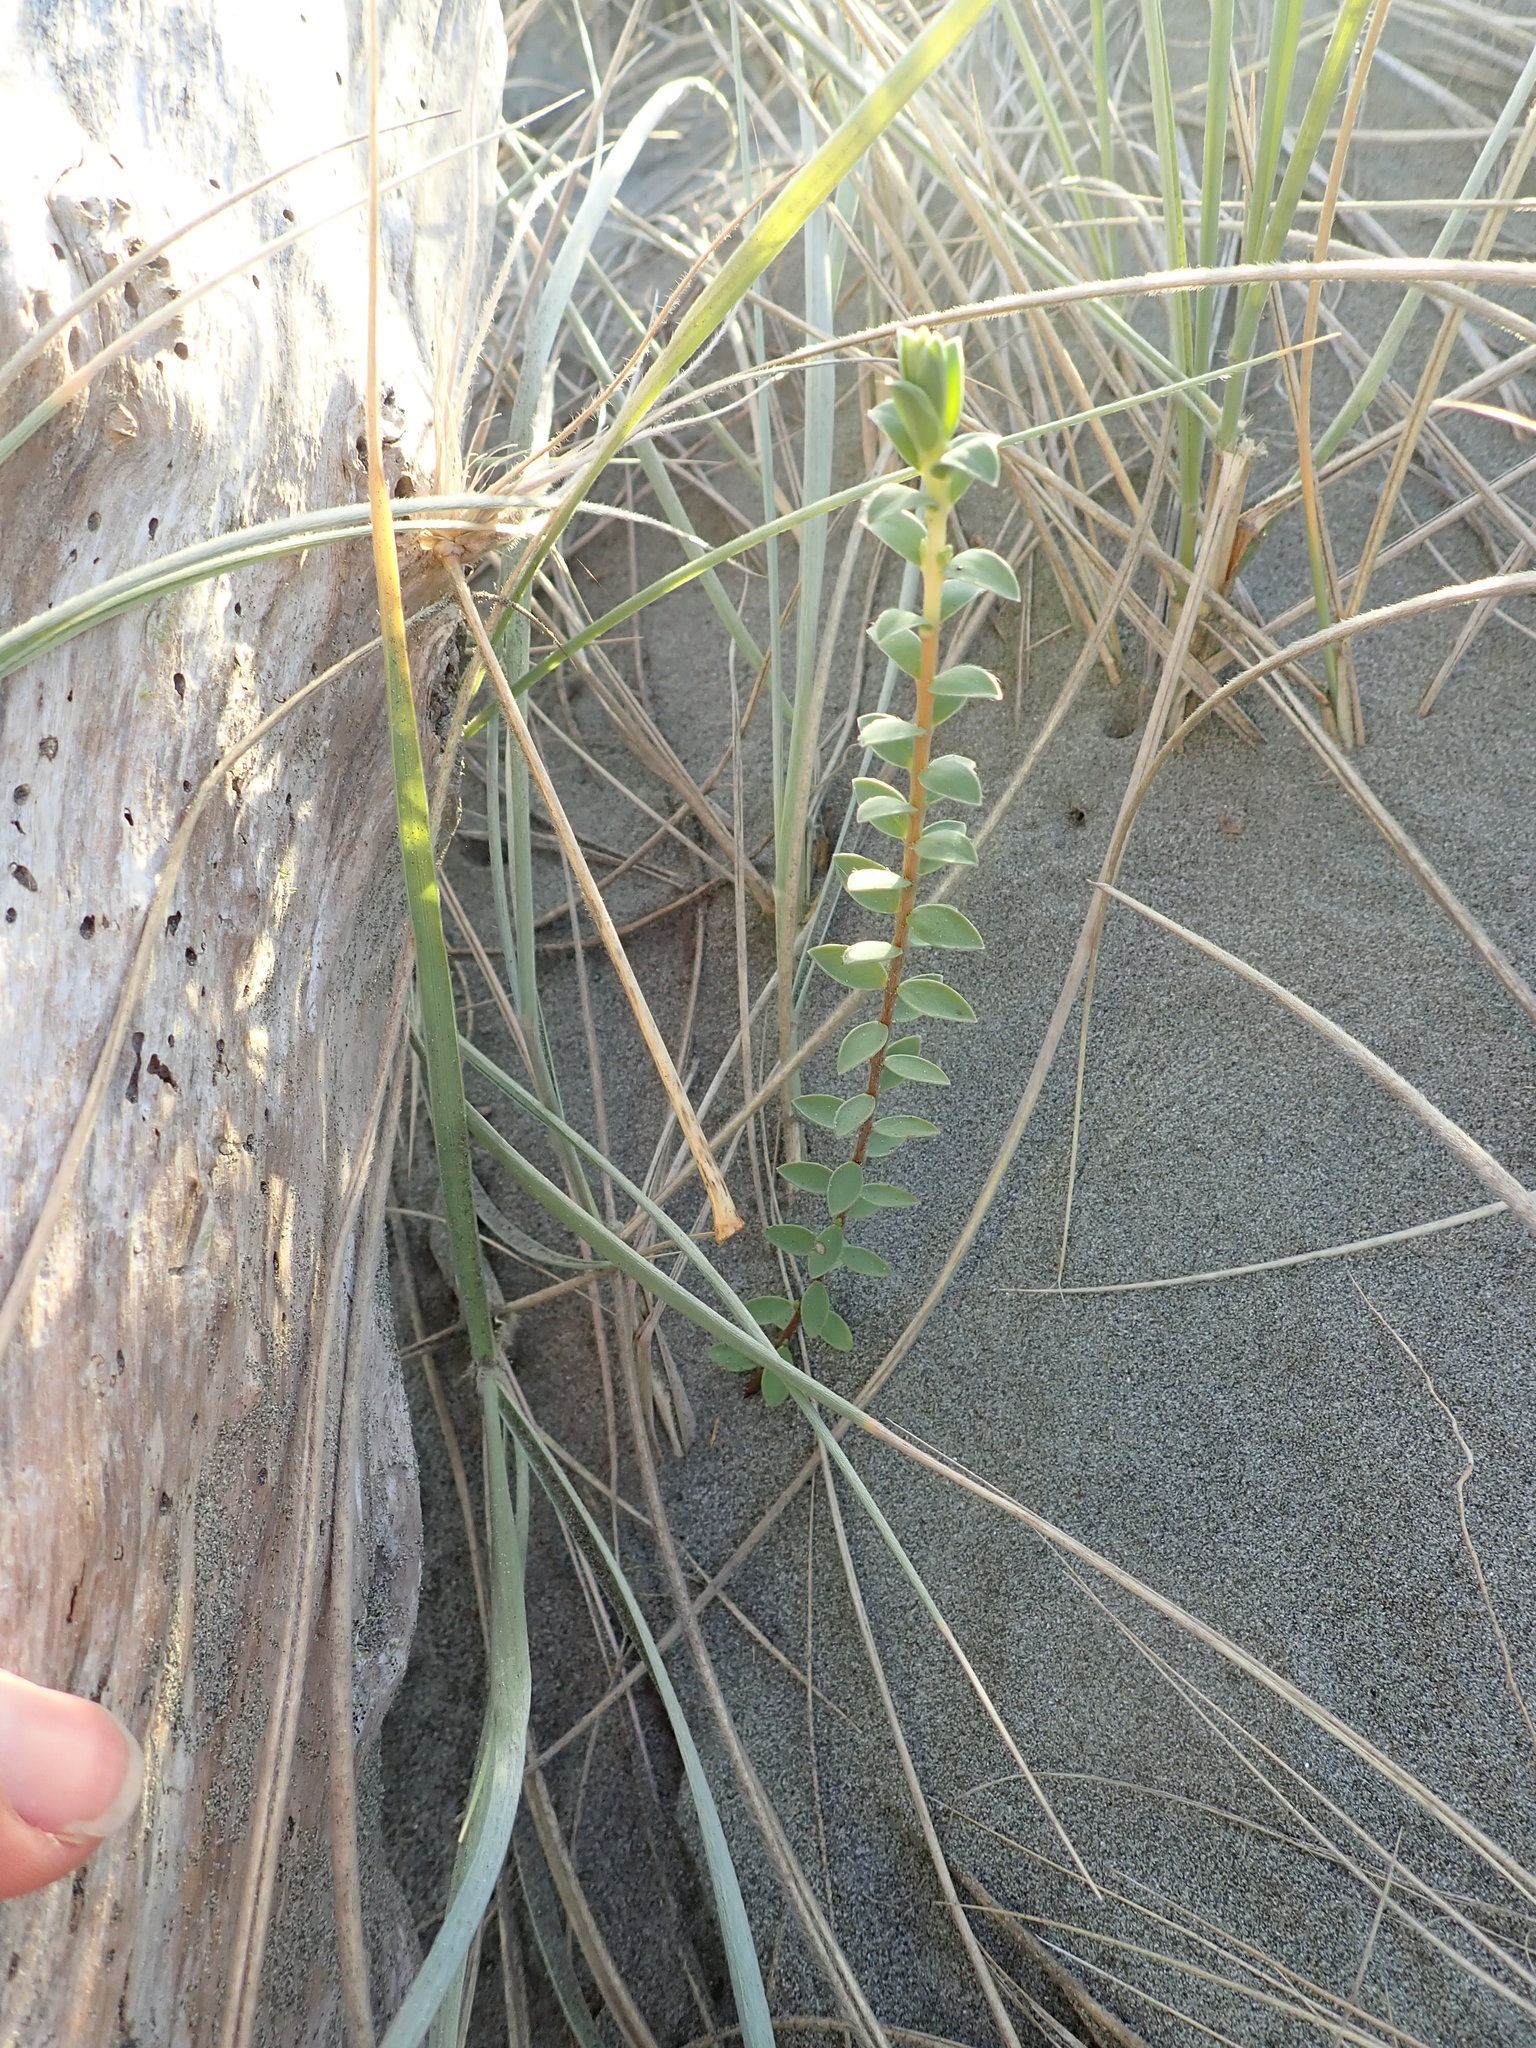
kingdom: Plantae
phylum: Tracheophyta
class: Magnoliopsida
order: Malvales
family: Thymelaeaceae
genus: Pimelea
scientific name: Pimelea villosa
